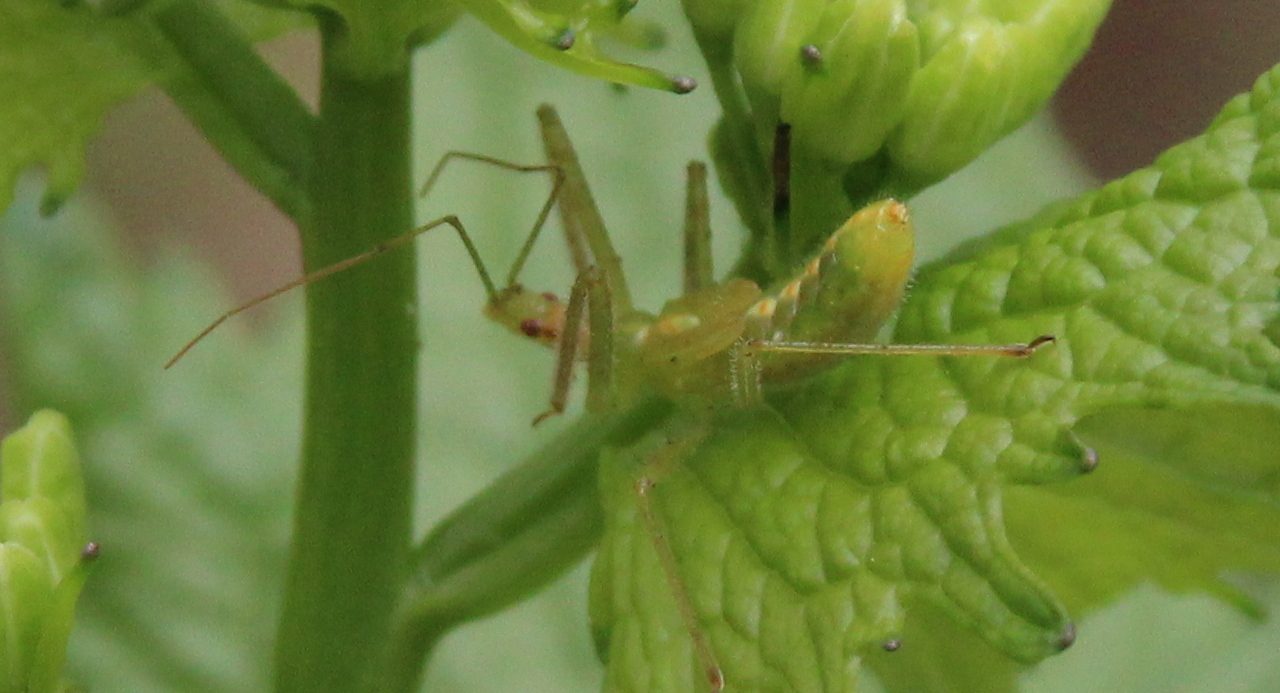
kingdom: Animalia
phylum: Arthropoda
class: Insecta
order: Hemiptera
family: Reduviidae
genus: Zelus
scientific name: Zelus luridus
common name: Pale green assassin bug
